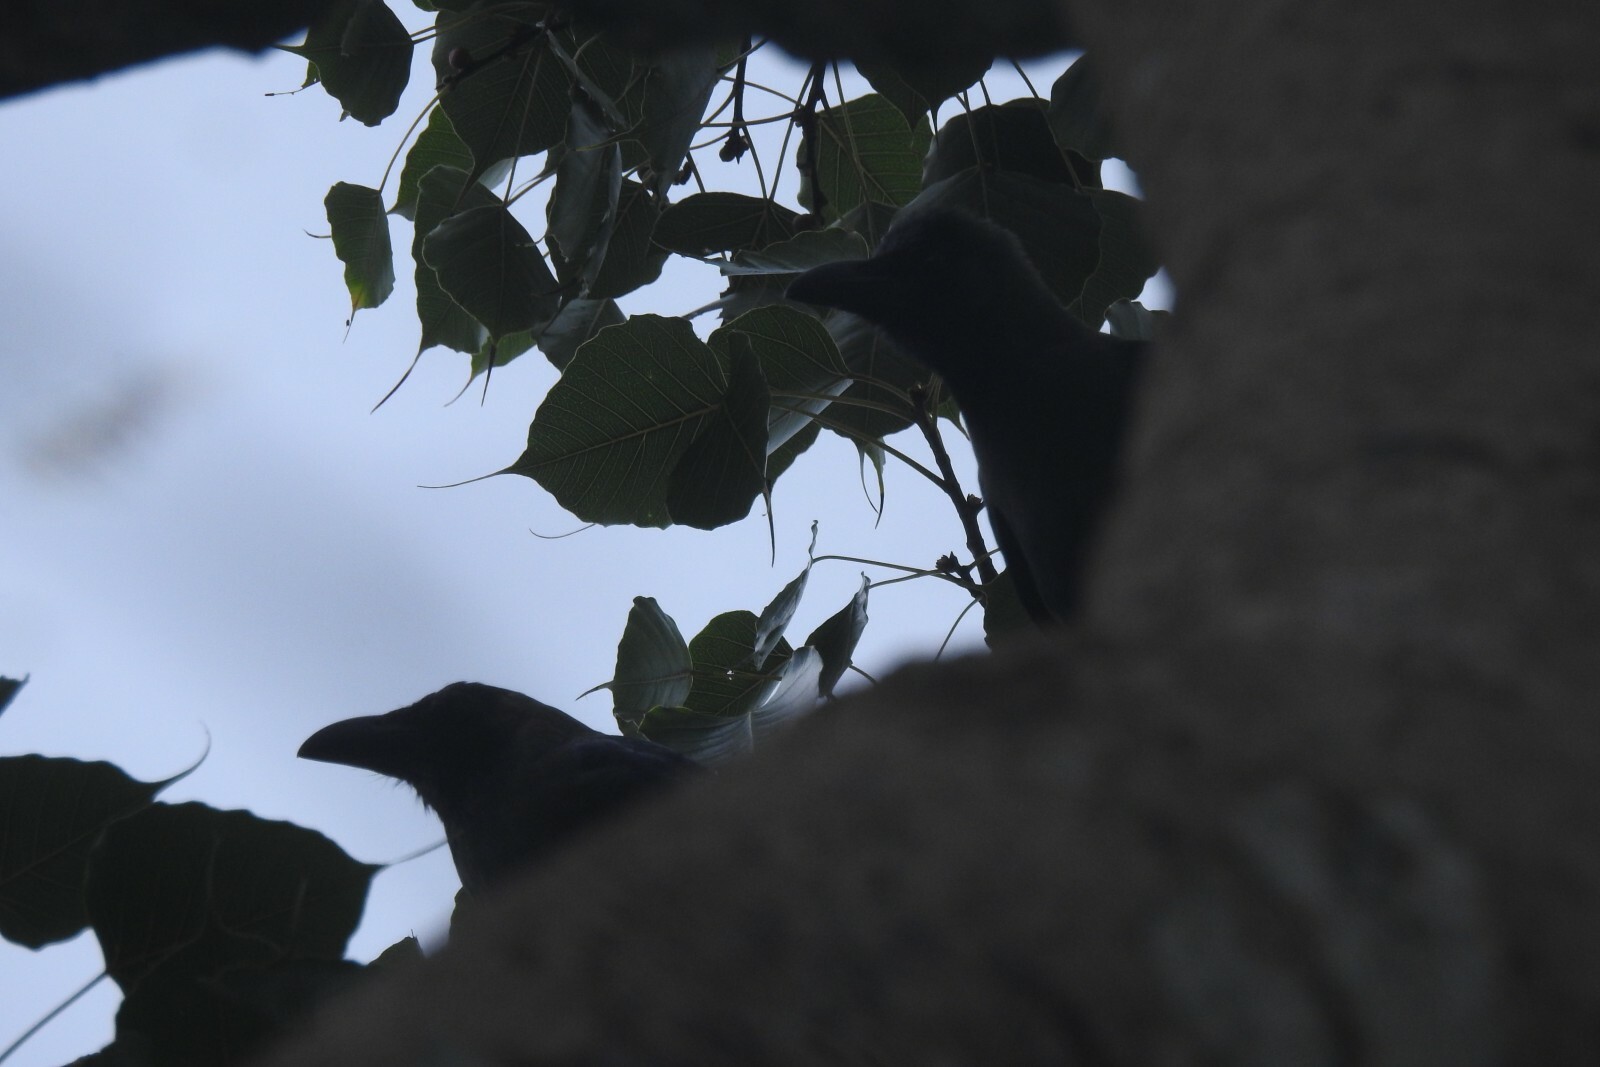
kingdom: Animalia
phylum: Chordata
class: Aves
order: Passeriformes
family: Corvidae
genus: Corvus
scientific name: Corvus splendens
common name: House crow
